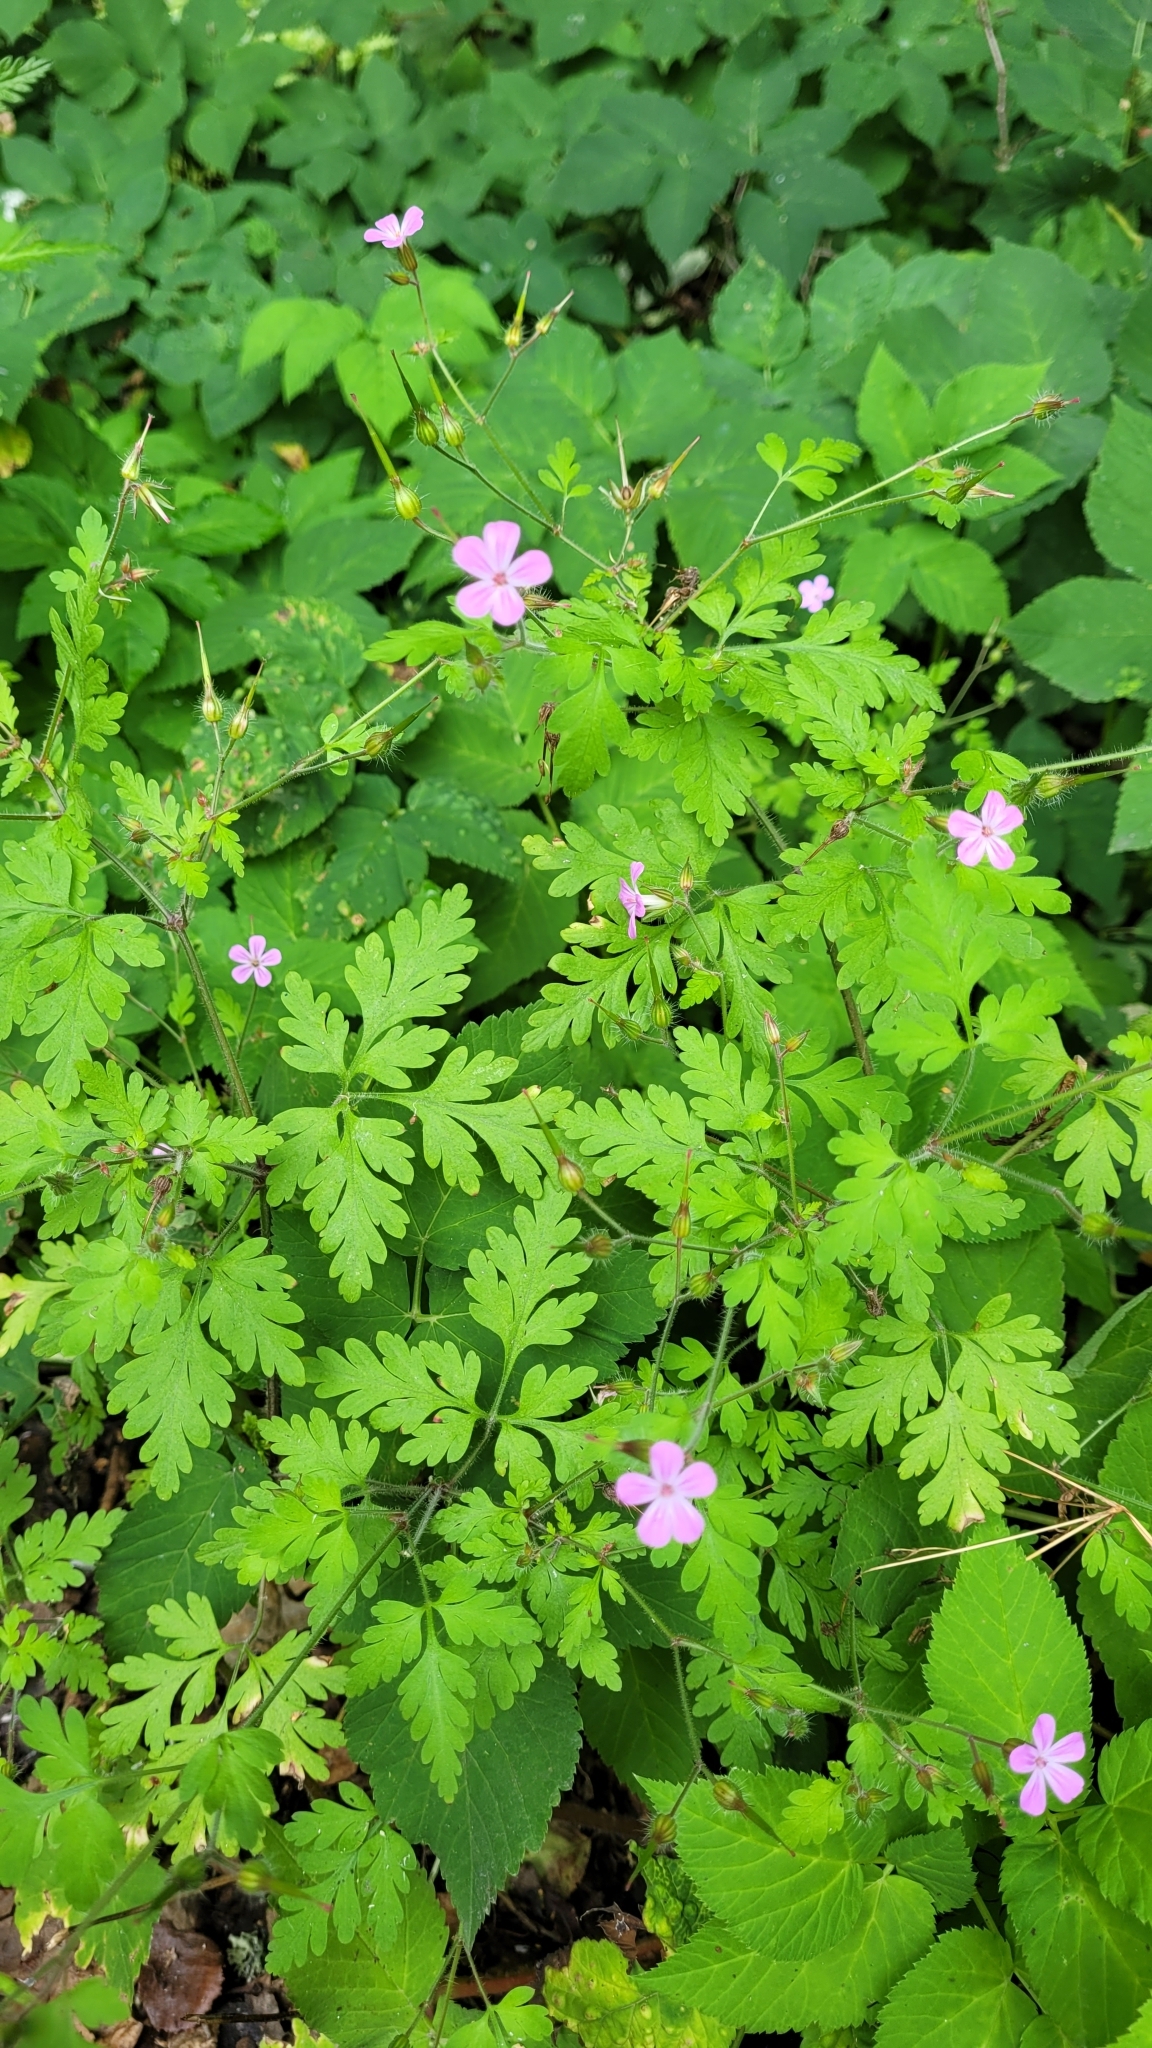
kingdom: Plantae
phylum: Tracheophyta
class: Magnoliopsida
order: Geraniales
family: Geraniaceae
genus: Geranium
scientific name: Geranium robertianum
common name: Herb-robert
